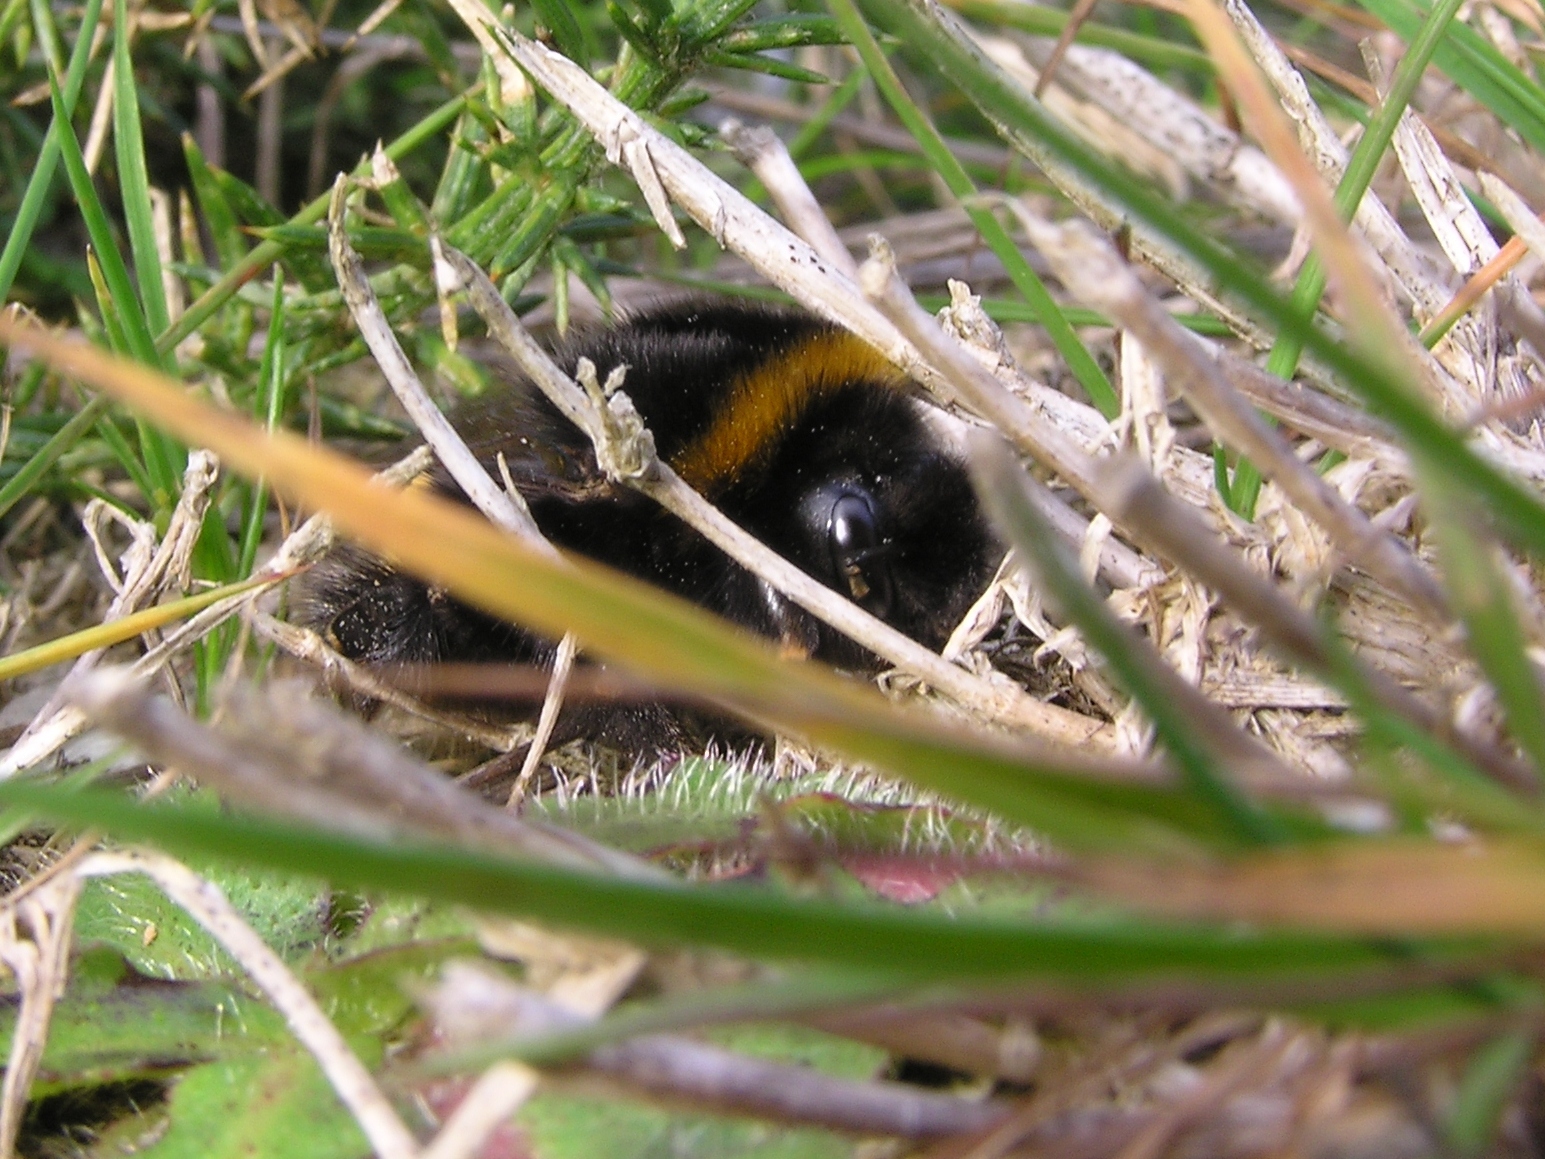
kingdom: Animalia
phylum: Arthropoda
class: Insecta
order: Hymenoptera
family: Apidae
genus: Bombus
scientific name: Bombus terrestris
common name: Buff-tailed bumblebee
